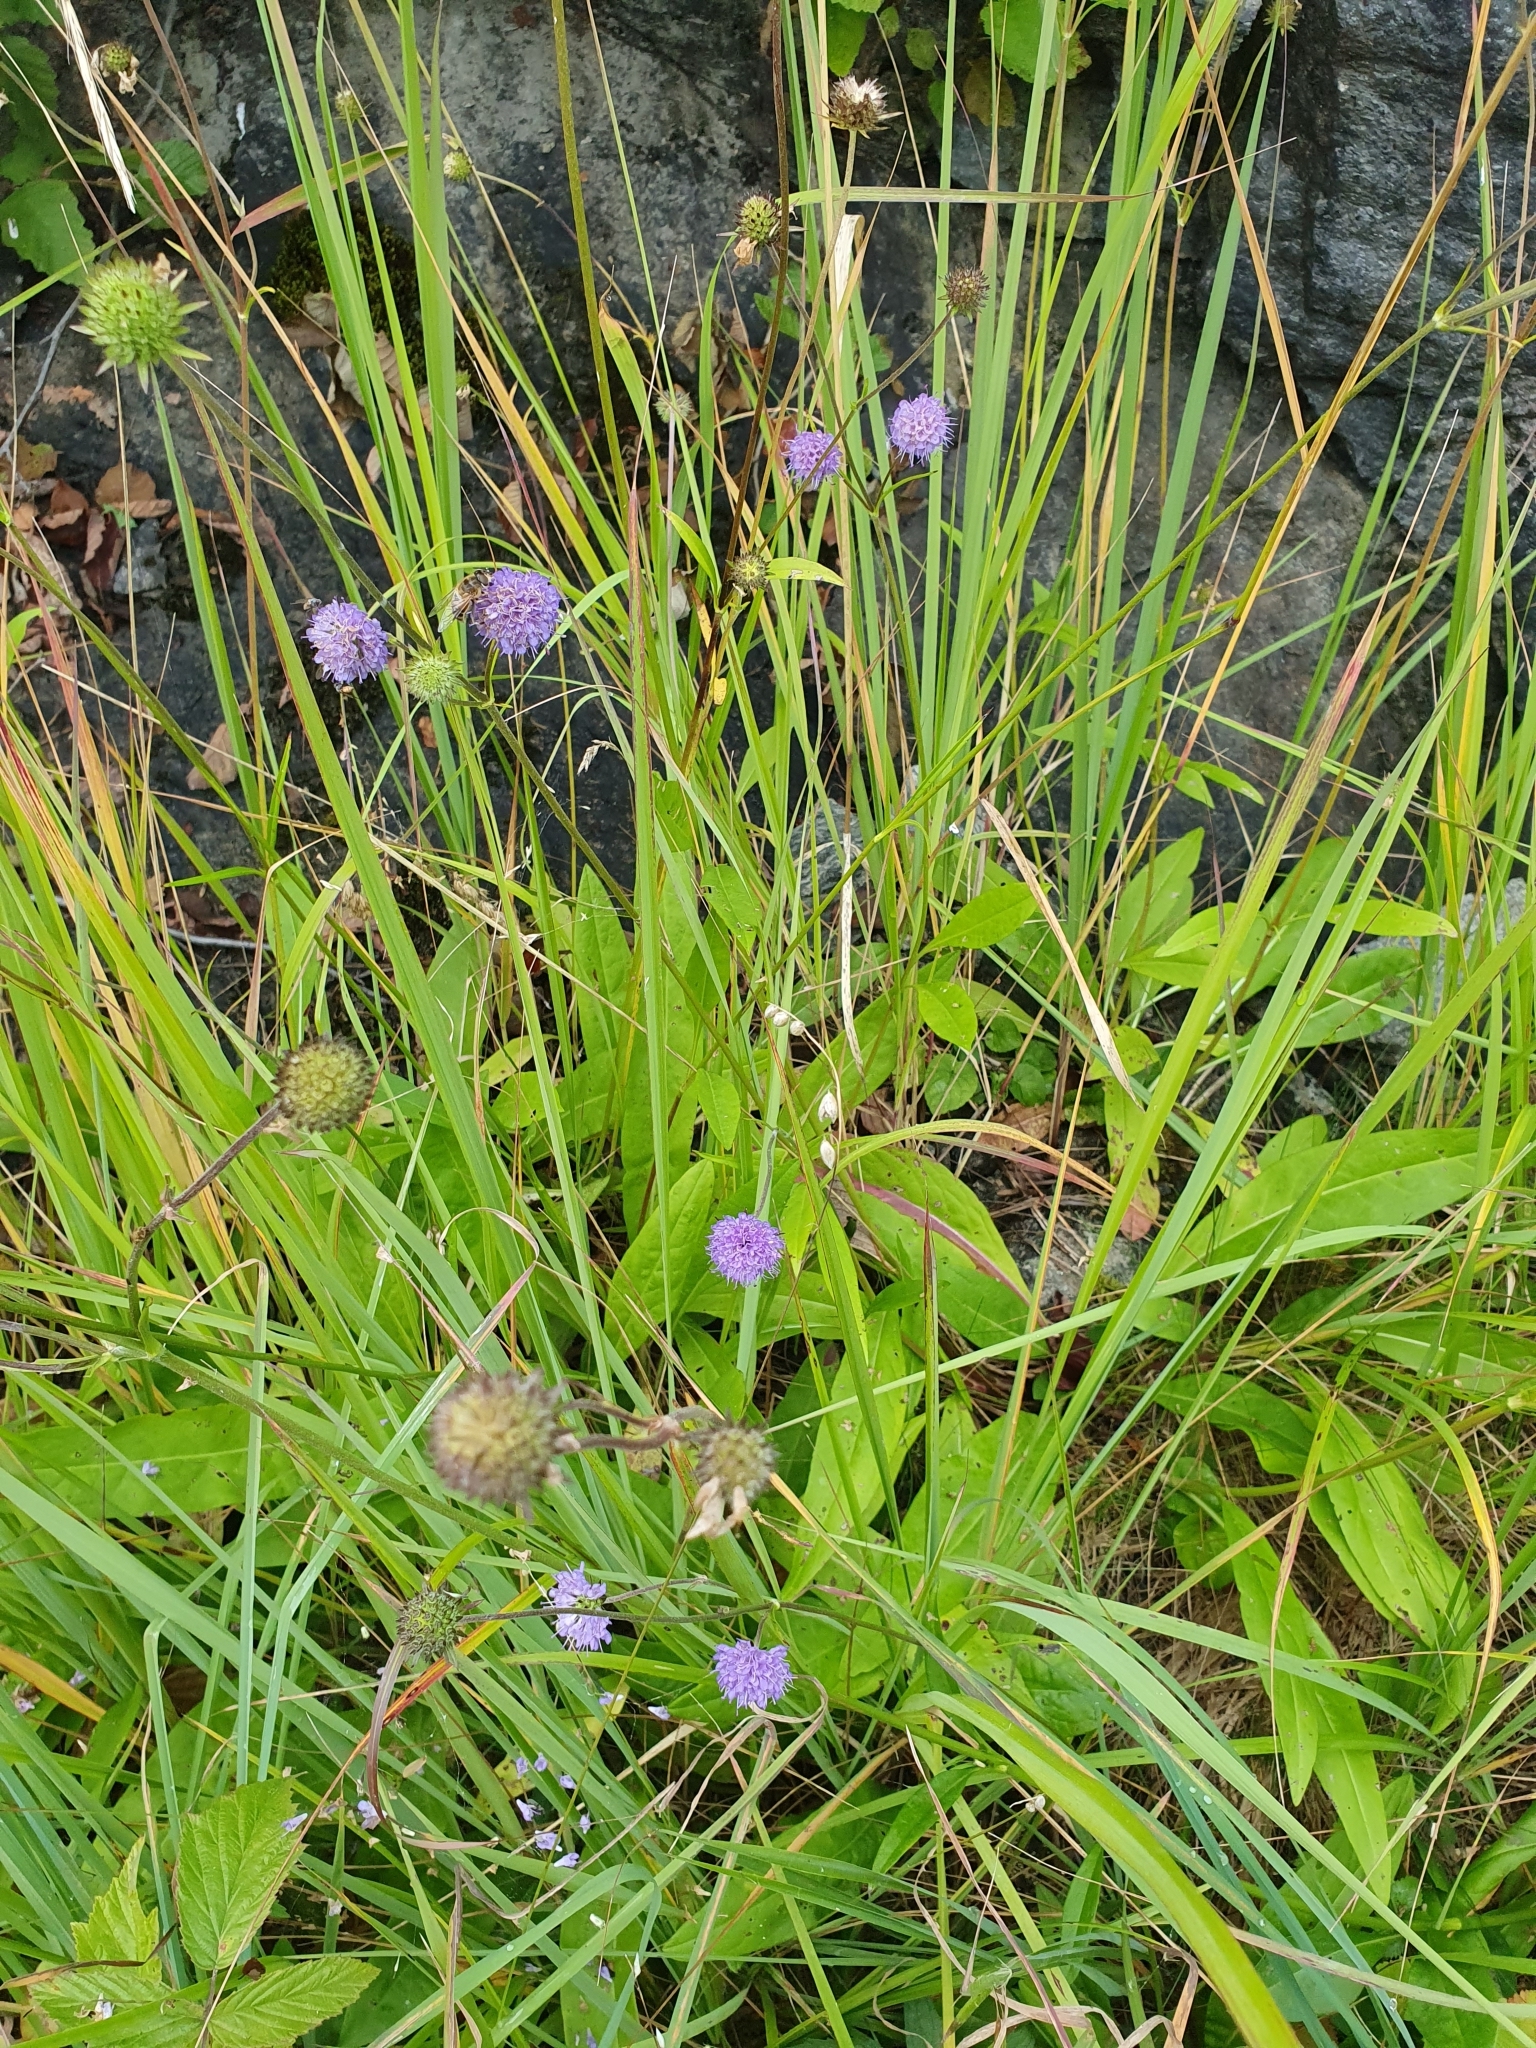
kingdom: Plantae
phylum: Tracheophyta
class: Magnoliopsida
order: Dipsacales
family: Caprifoliaceae
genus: Succisa
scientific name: Succisa pratensis
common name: Devil's-bit
